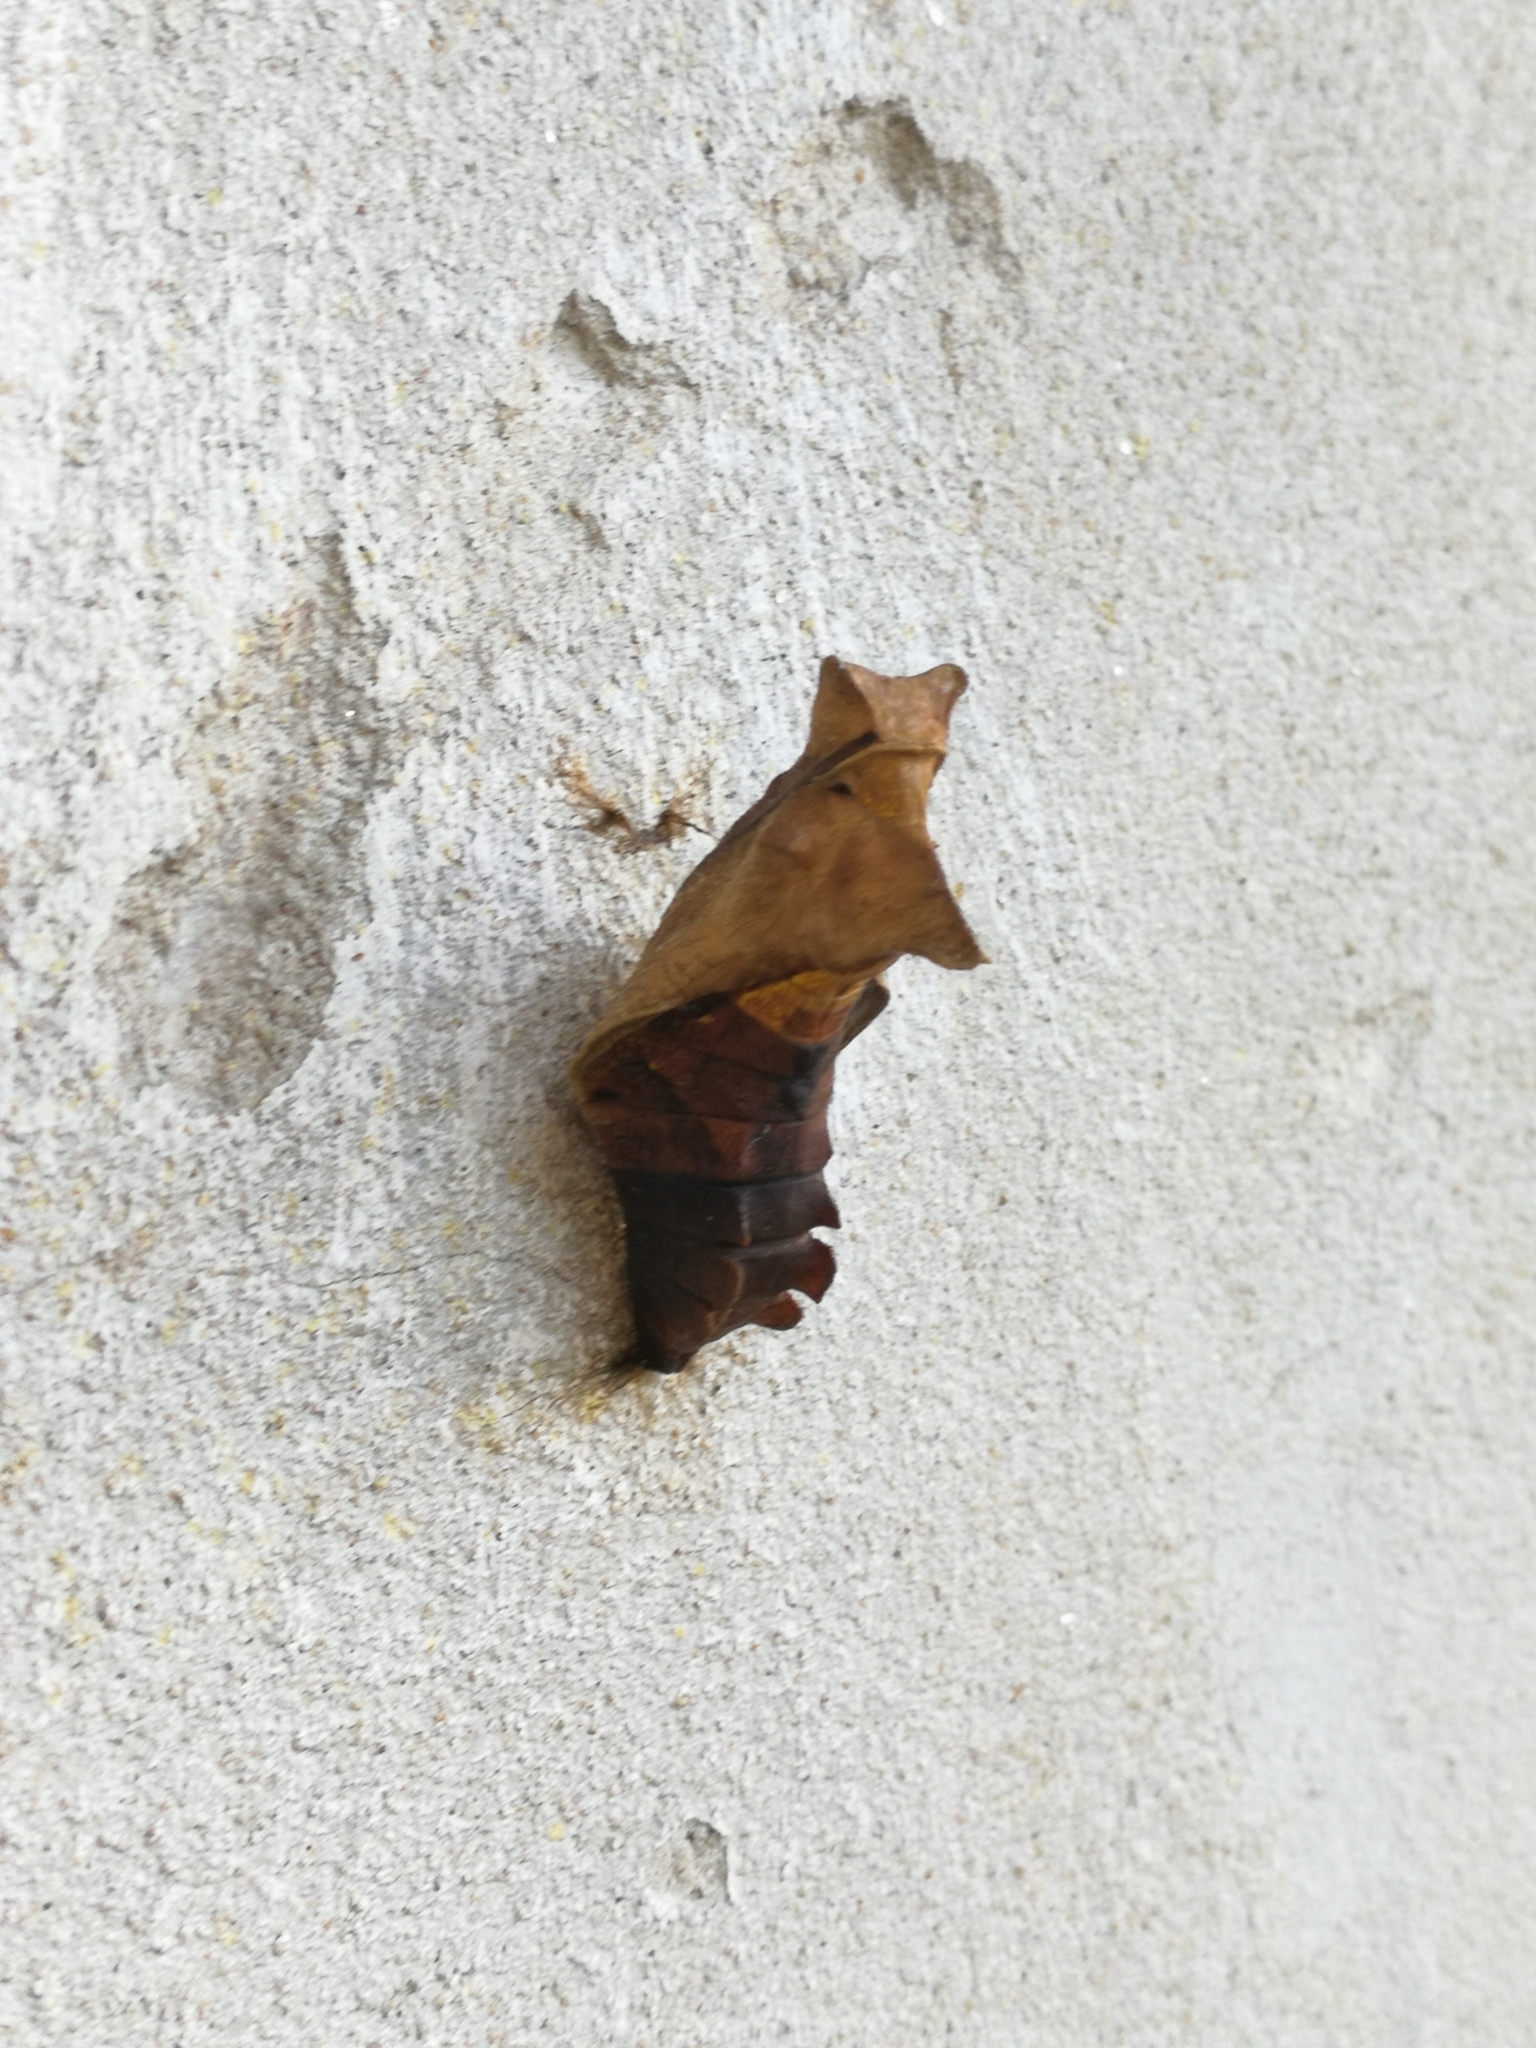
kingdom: Animalia
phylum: Arthropoda
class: Insecta
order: Lepidoptera
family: Papilionidae
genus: Battus
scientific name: Battus polydamas
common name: Polydamas swallowtail
